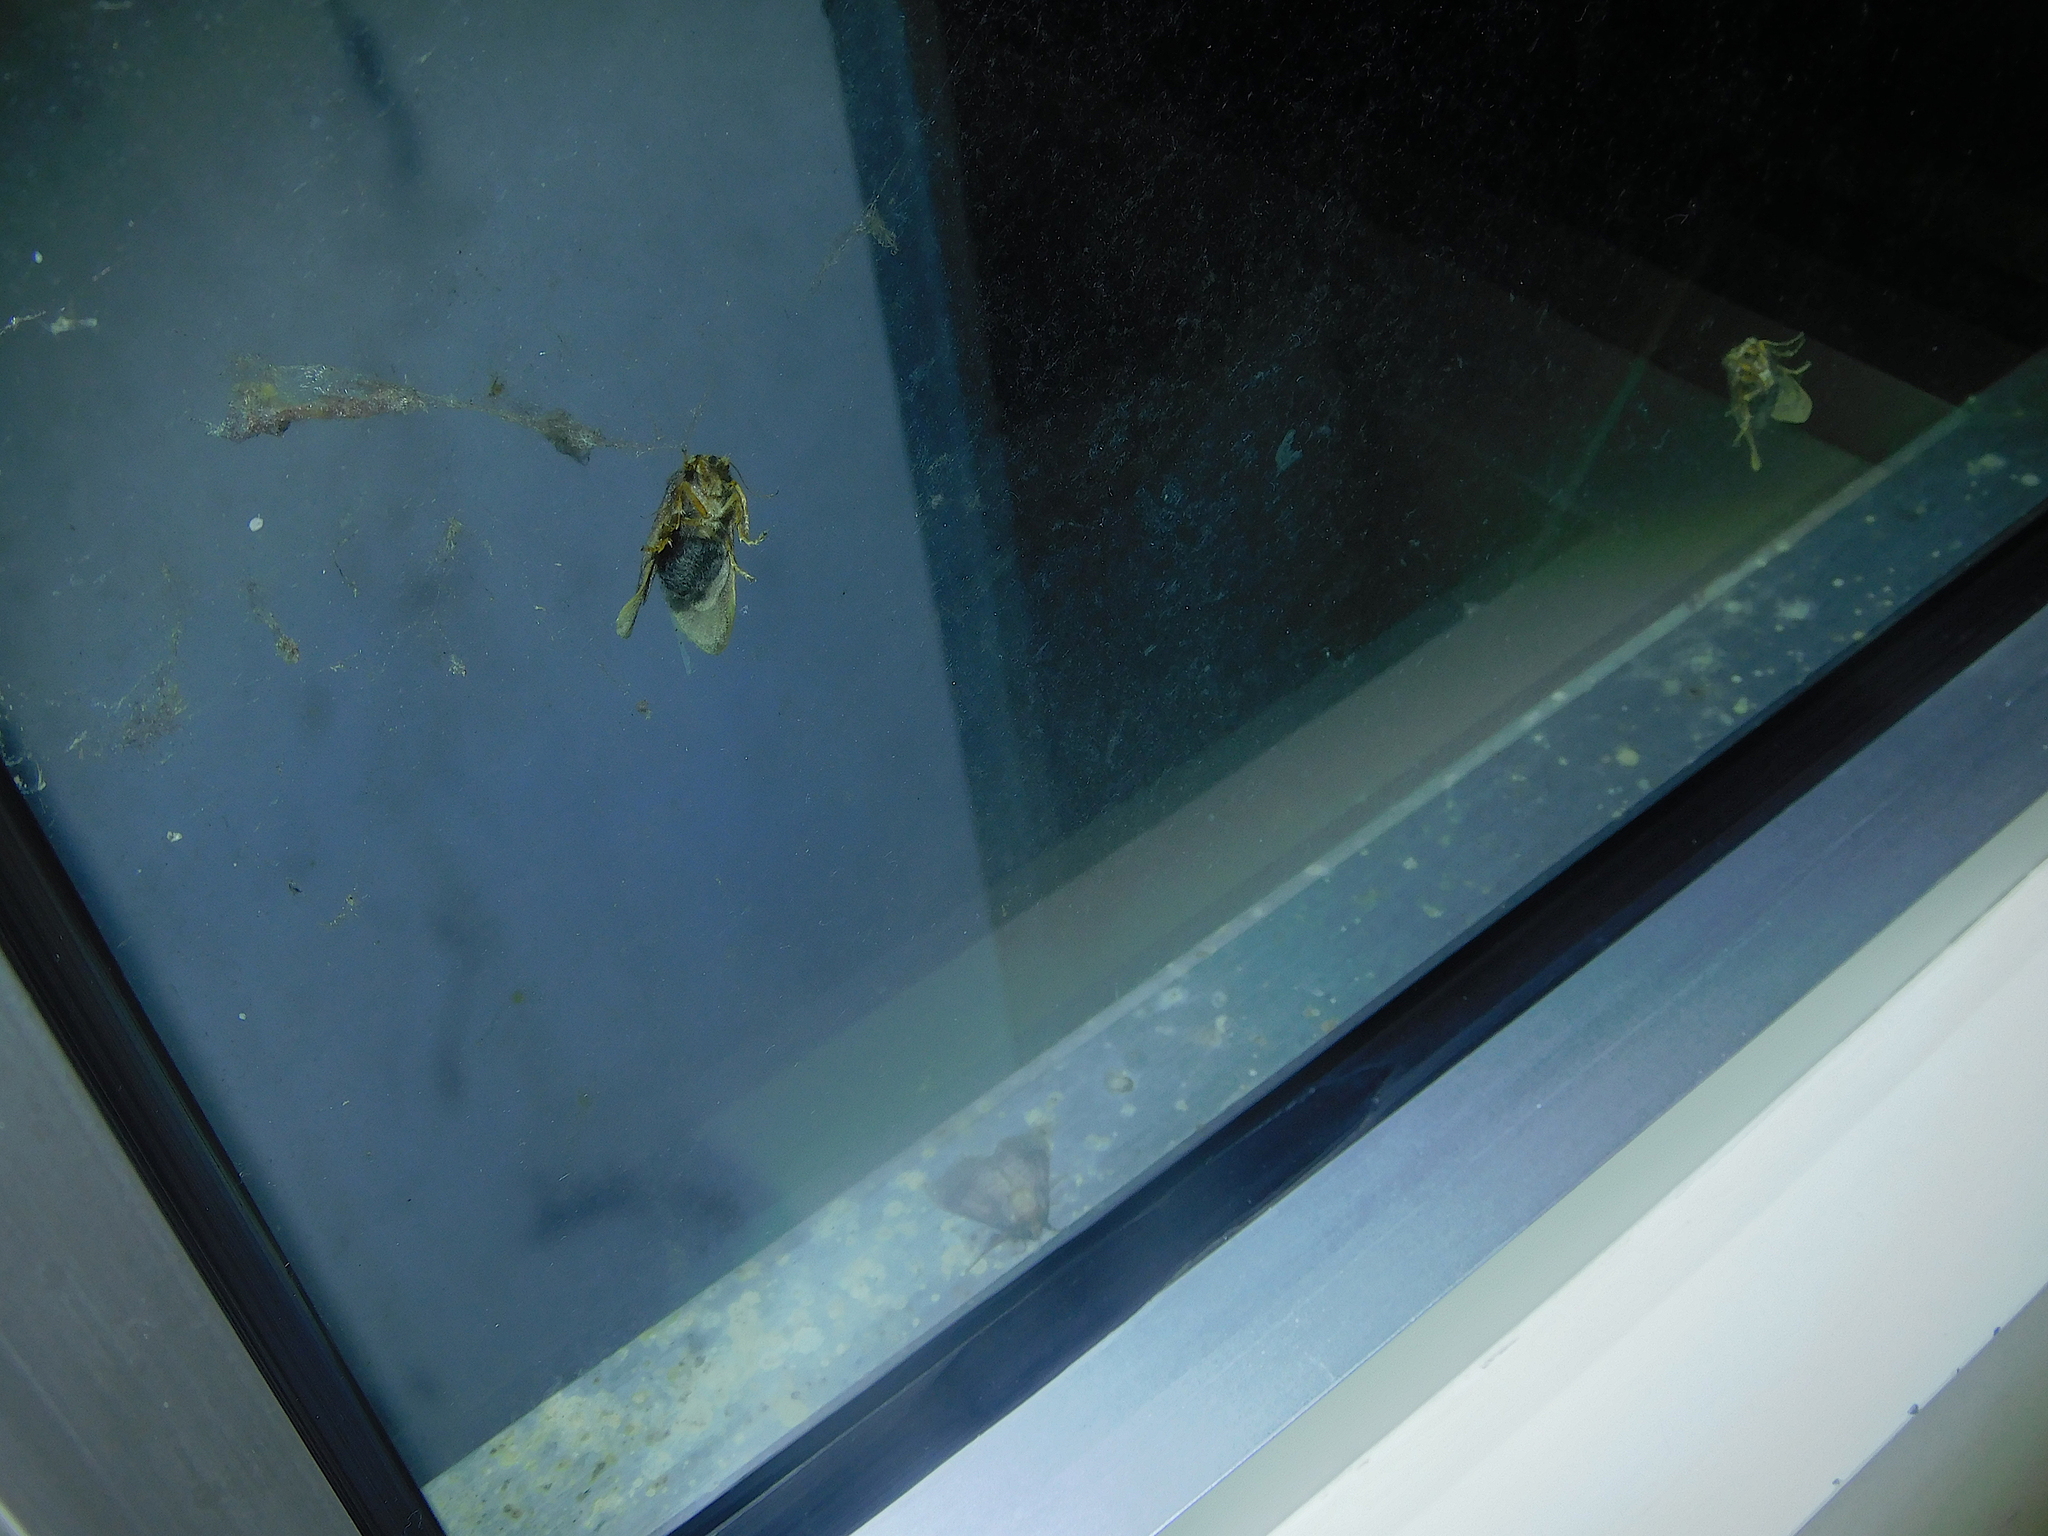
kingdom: Animalia
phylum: Arthropoda
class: Insecta
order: Lepidoptera
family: Limacodidae
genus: Doratifera
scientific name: Doratifera oxleyi
